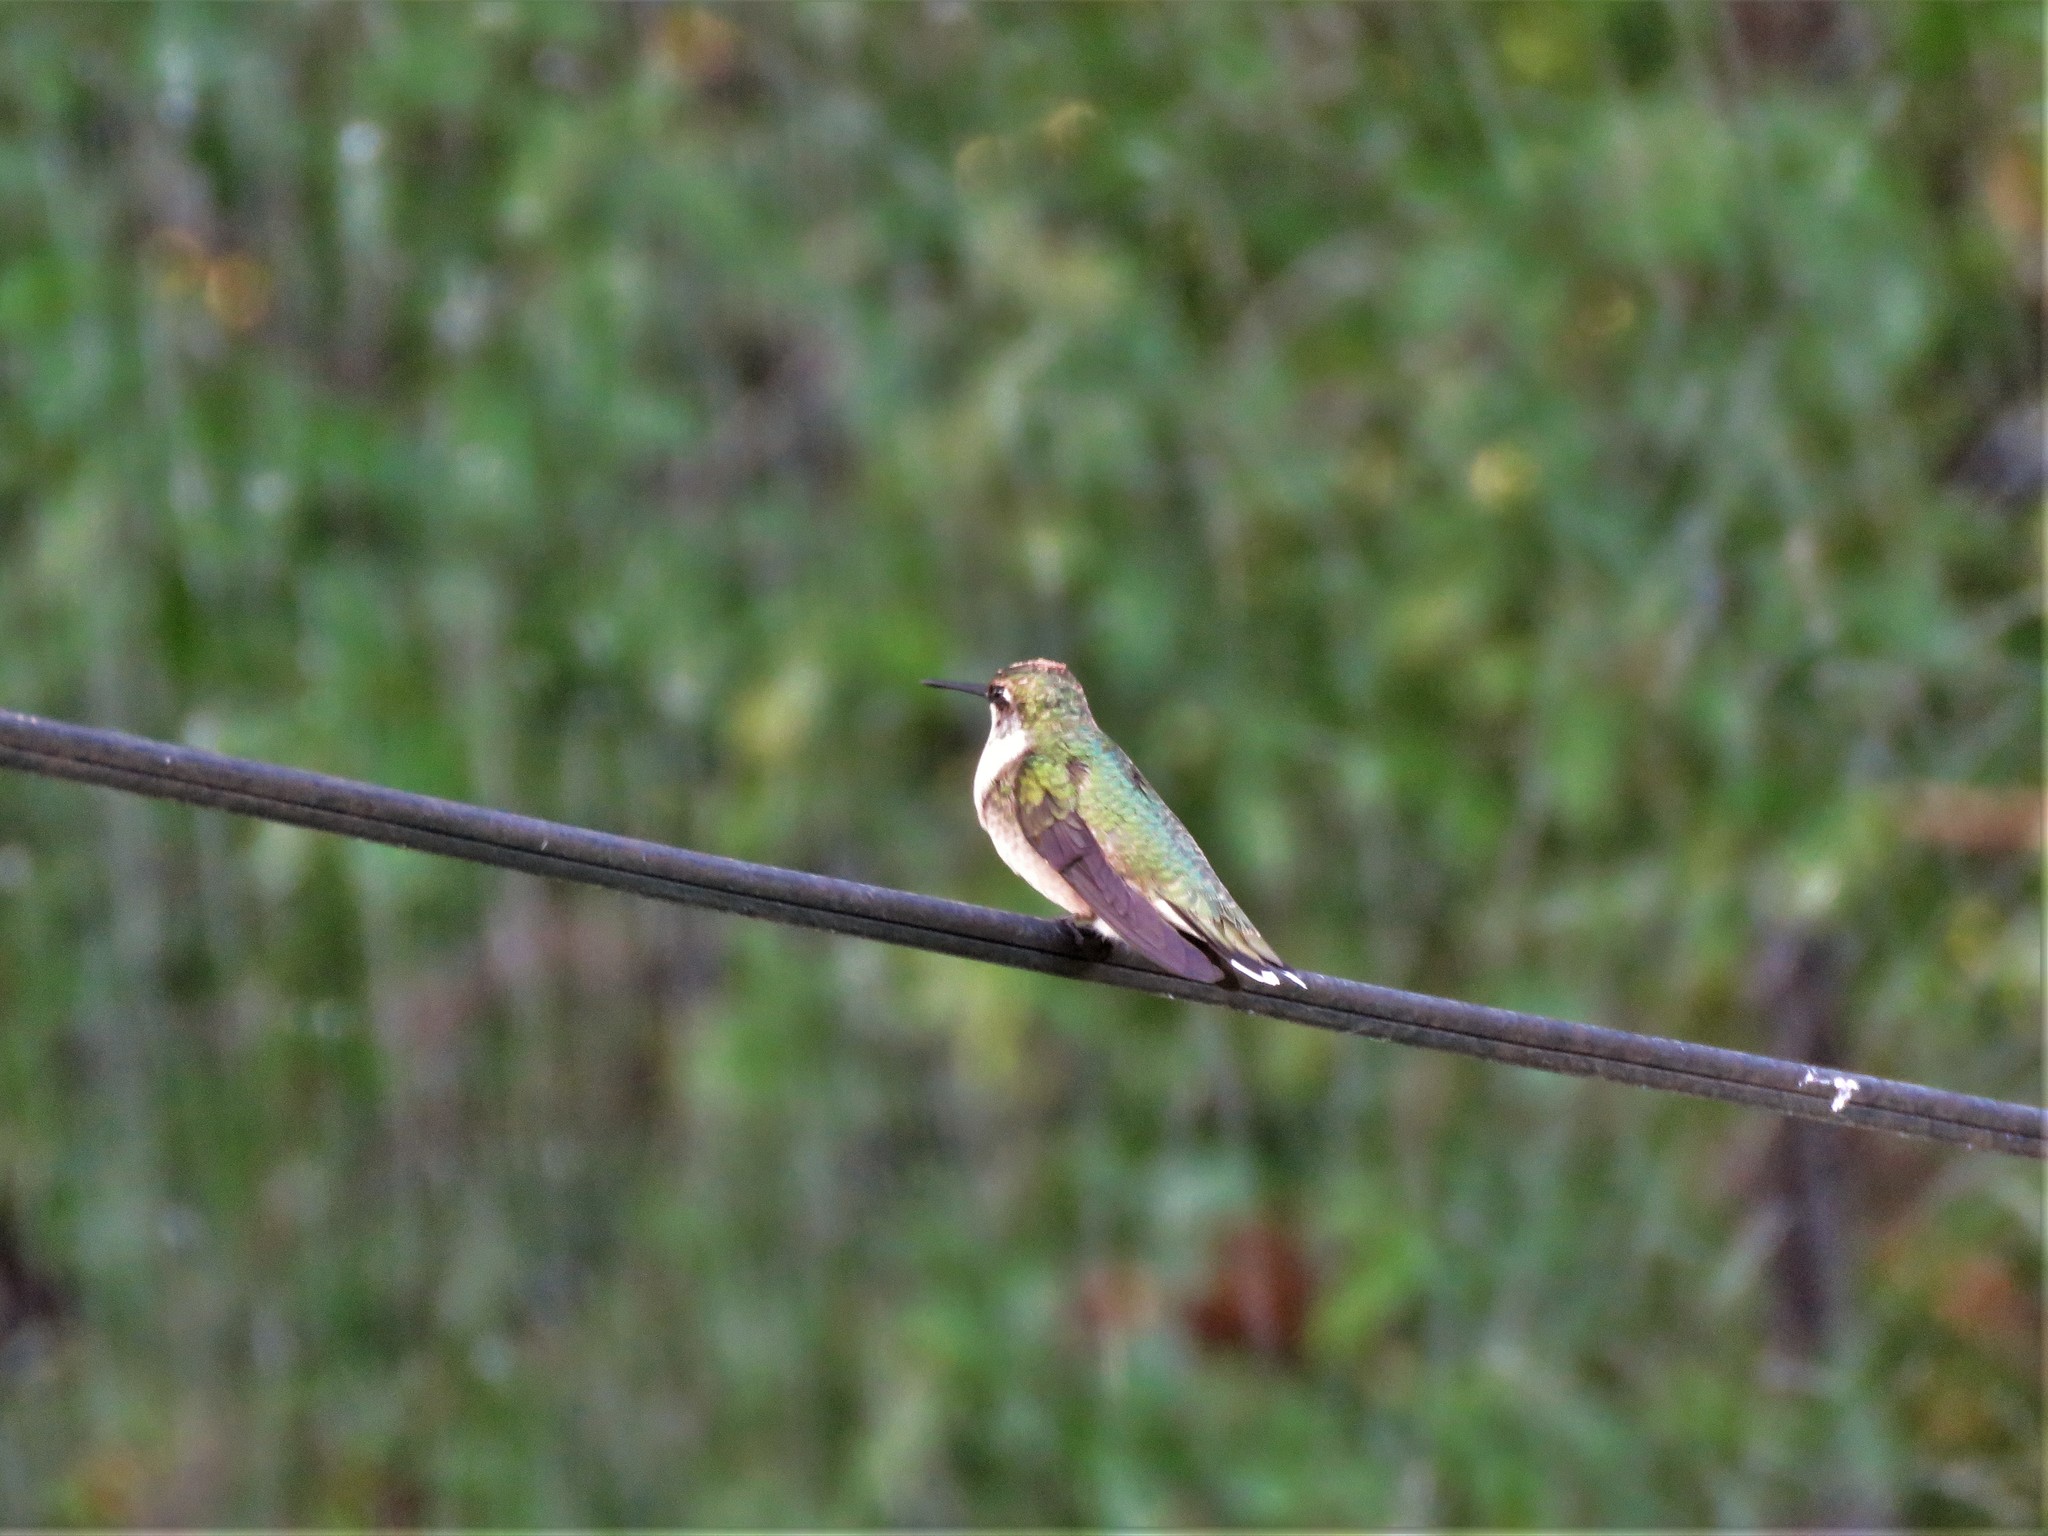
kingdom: Animalia
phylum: Chordata
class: Aves
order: Apodiformes
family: Trochilidae
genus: Archilochus
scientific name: Archilochus colubris
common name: Ruby-throated hummingbird
